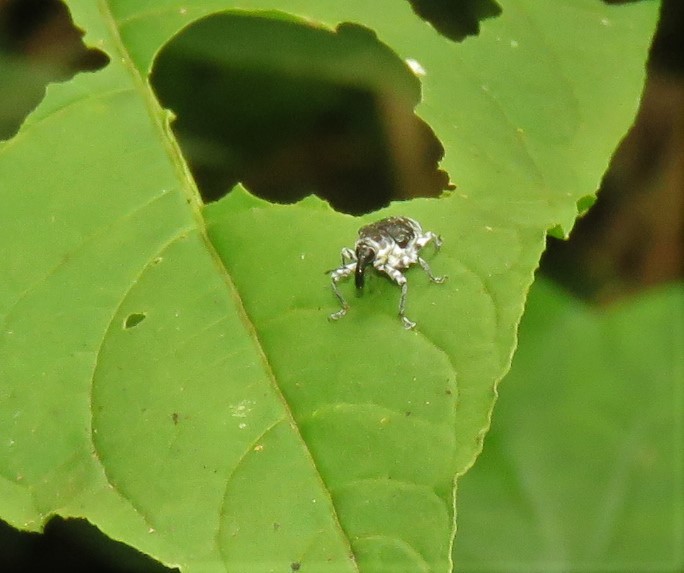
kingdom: Animalia
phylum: Arthropoda
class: Insecta
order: Coleoptera
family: Curculionidae
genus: Peridinetus
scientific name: Peridinetus irroratus
